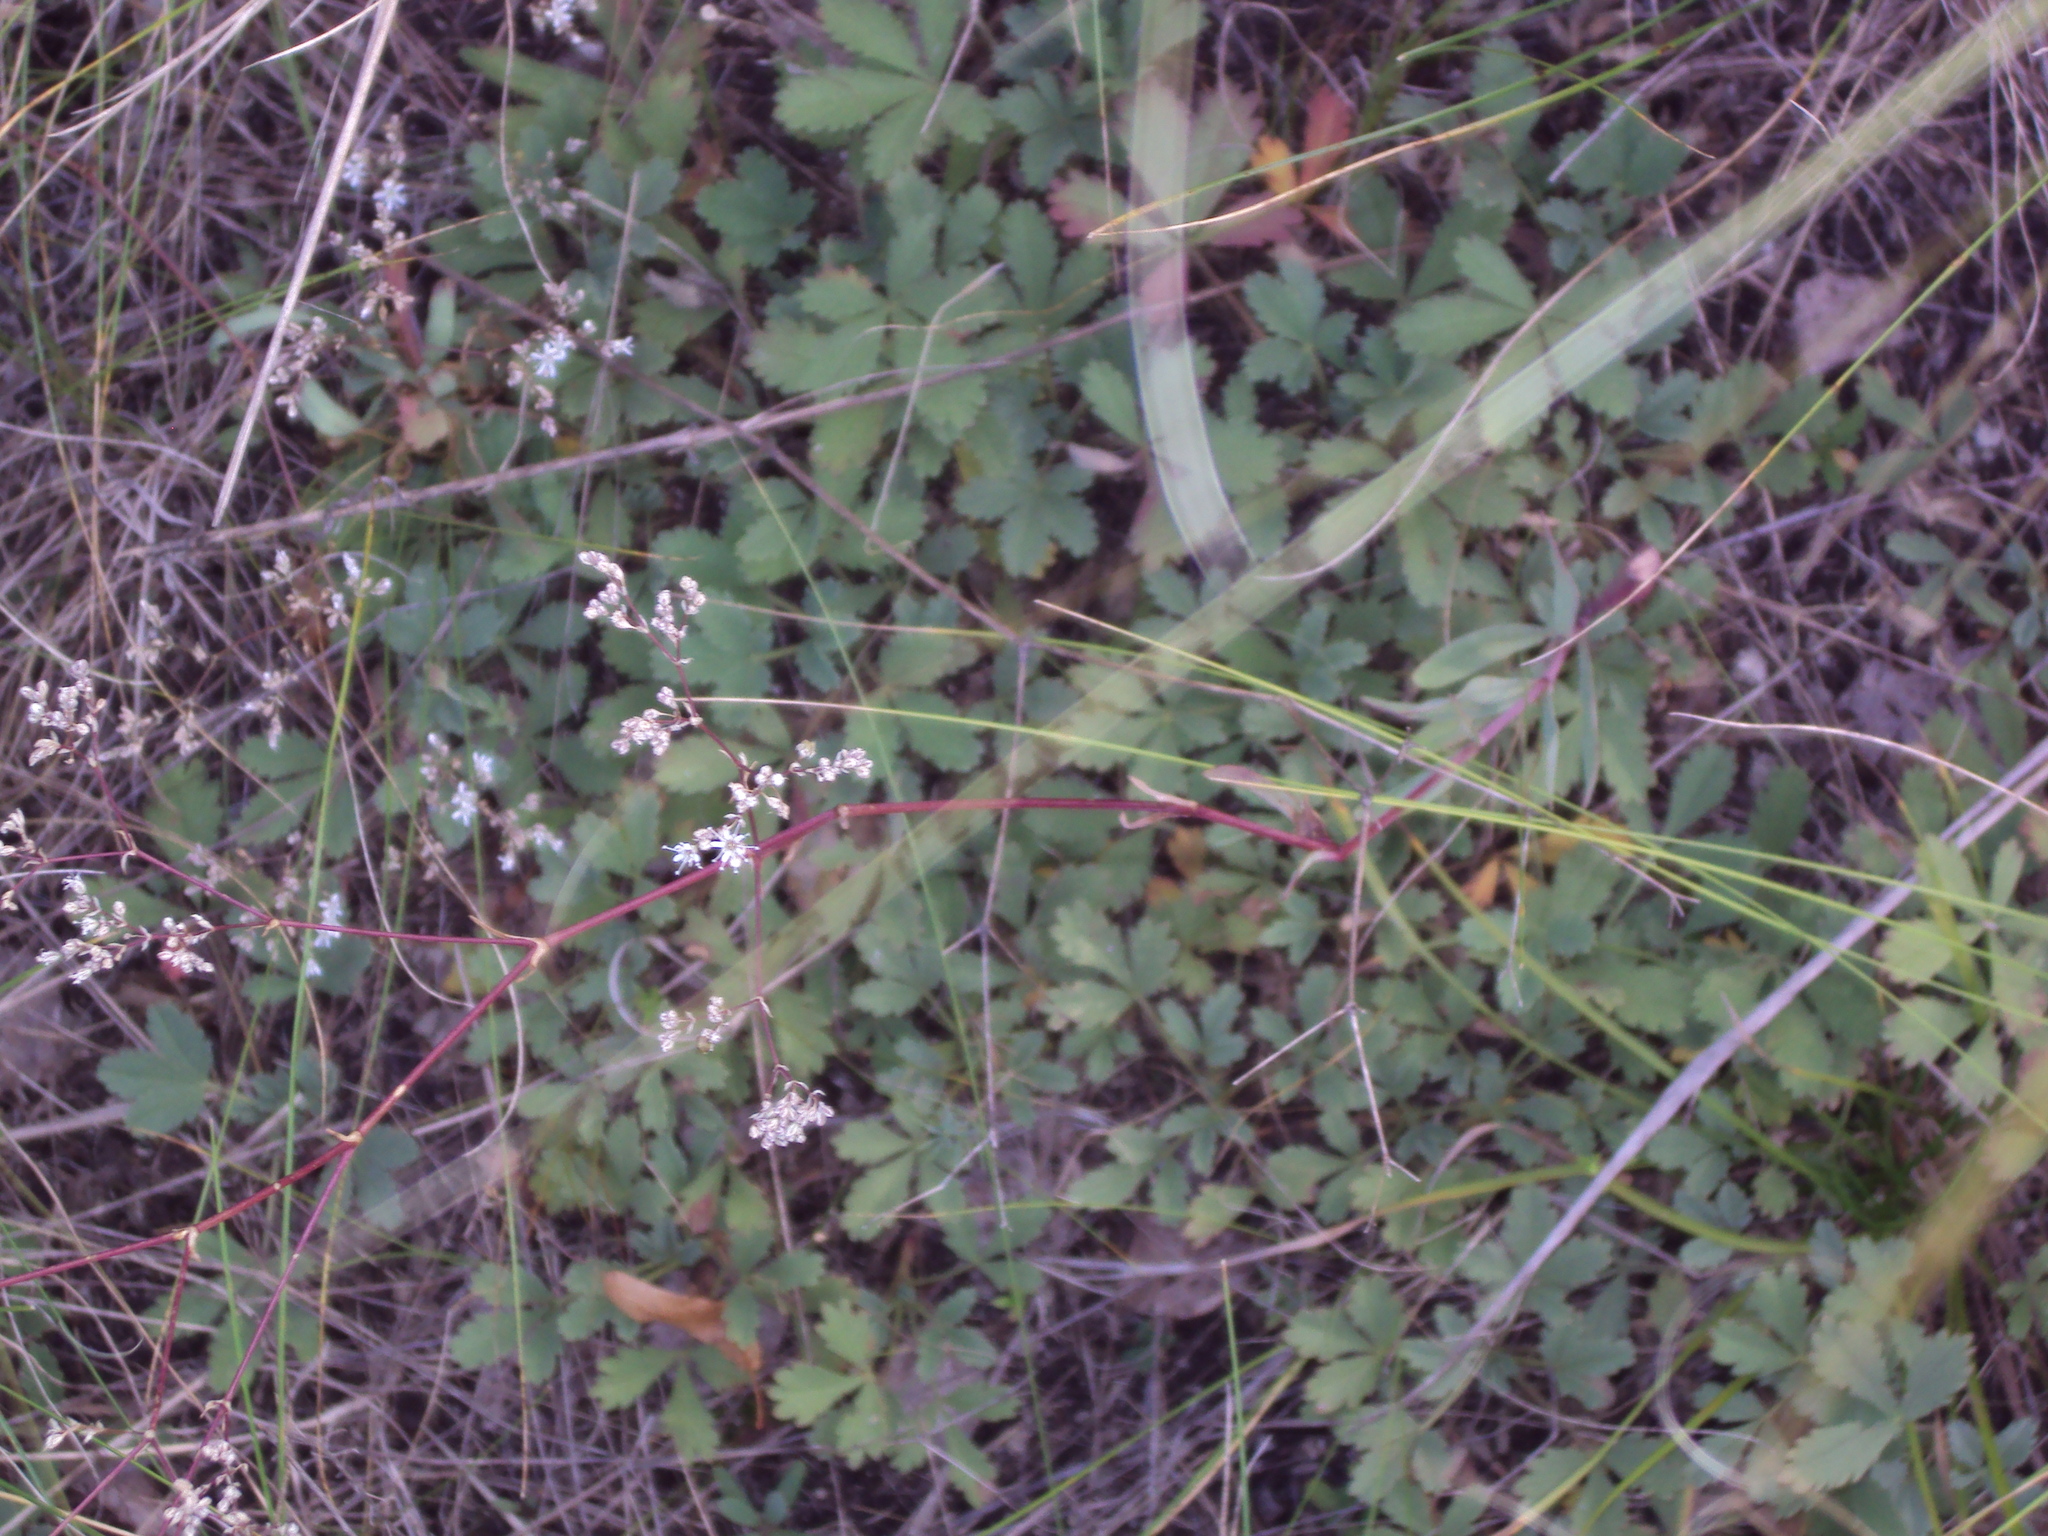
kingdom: Plantae
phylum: Tracheophyta
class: Magnoliopsida
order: Caryophyllales
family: Caryophyllaceae
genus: Gypsophila
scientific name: Gypsophila altissima
